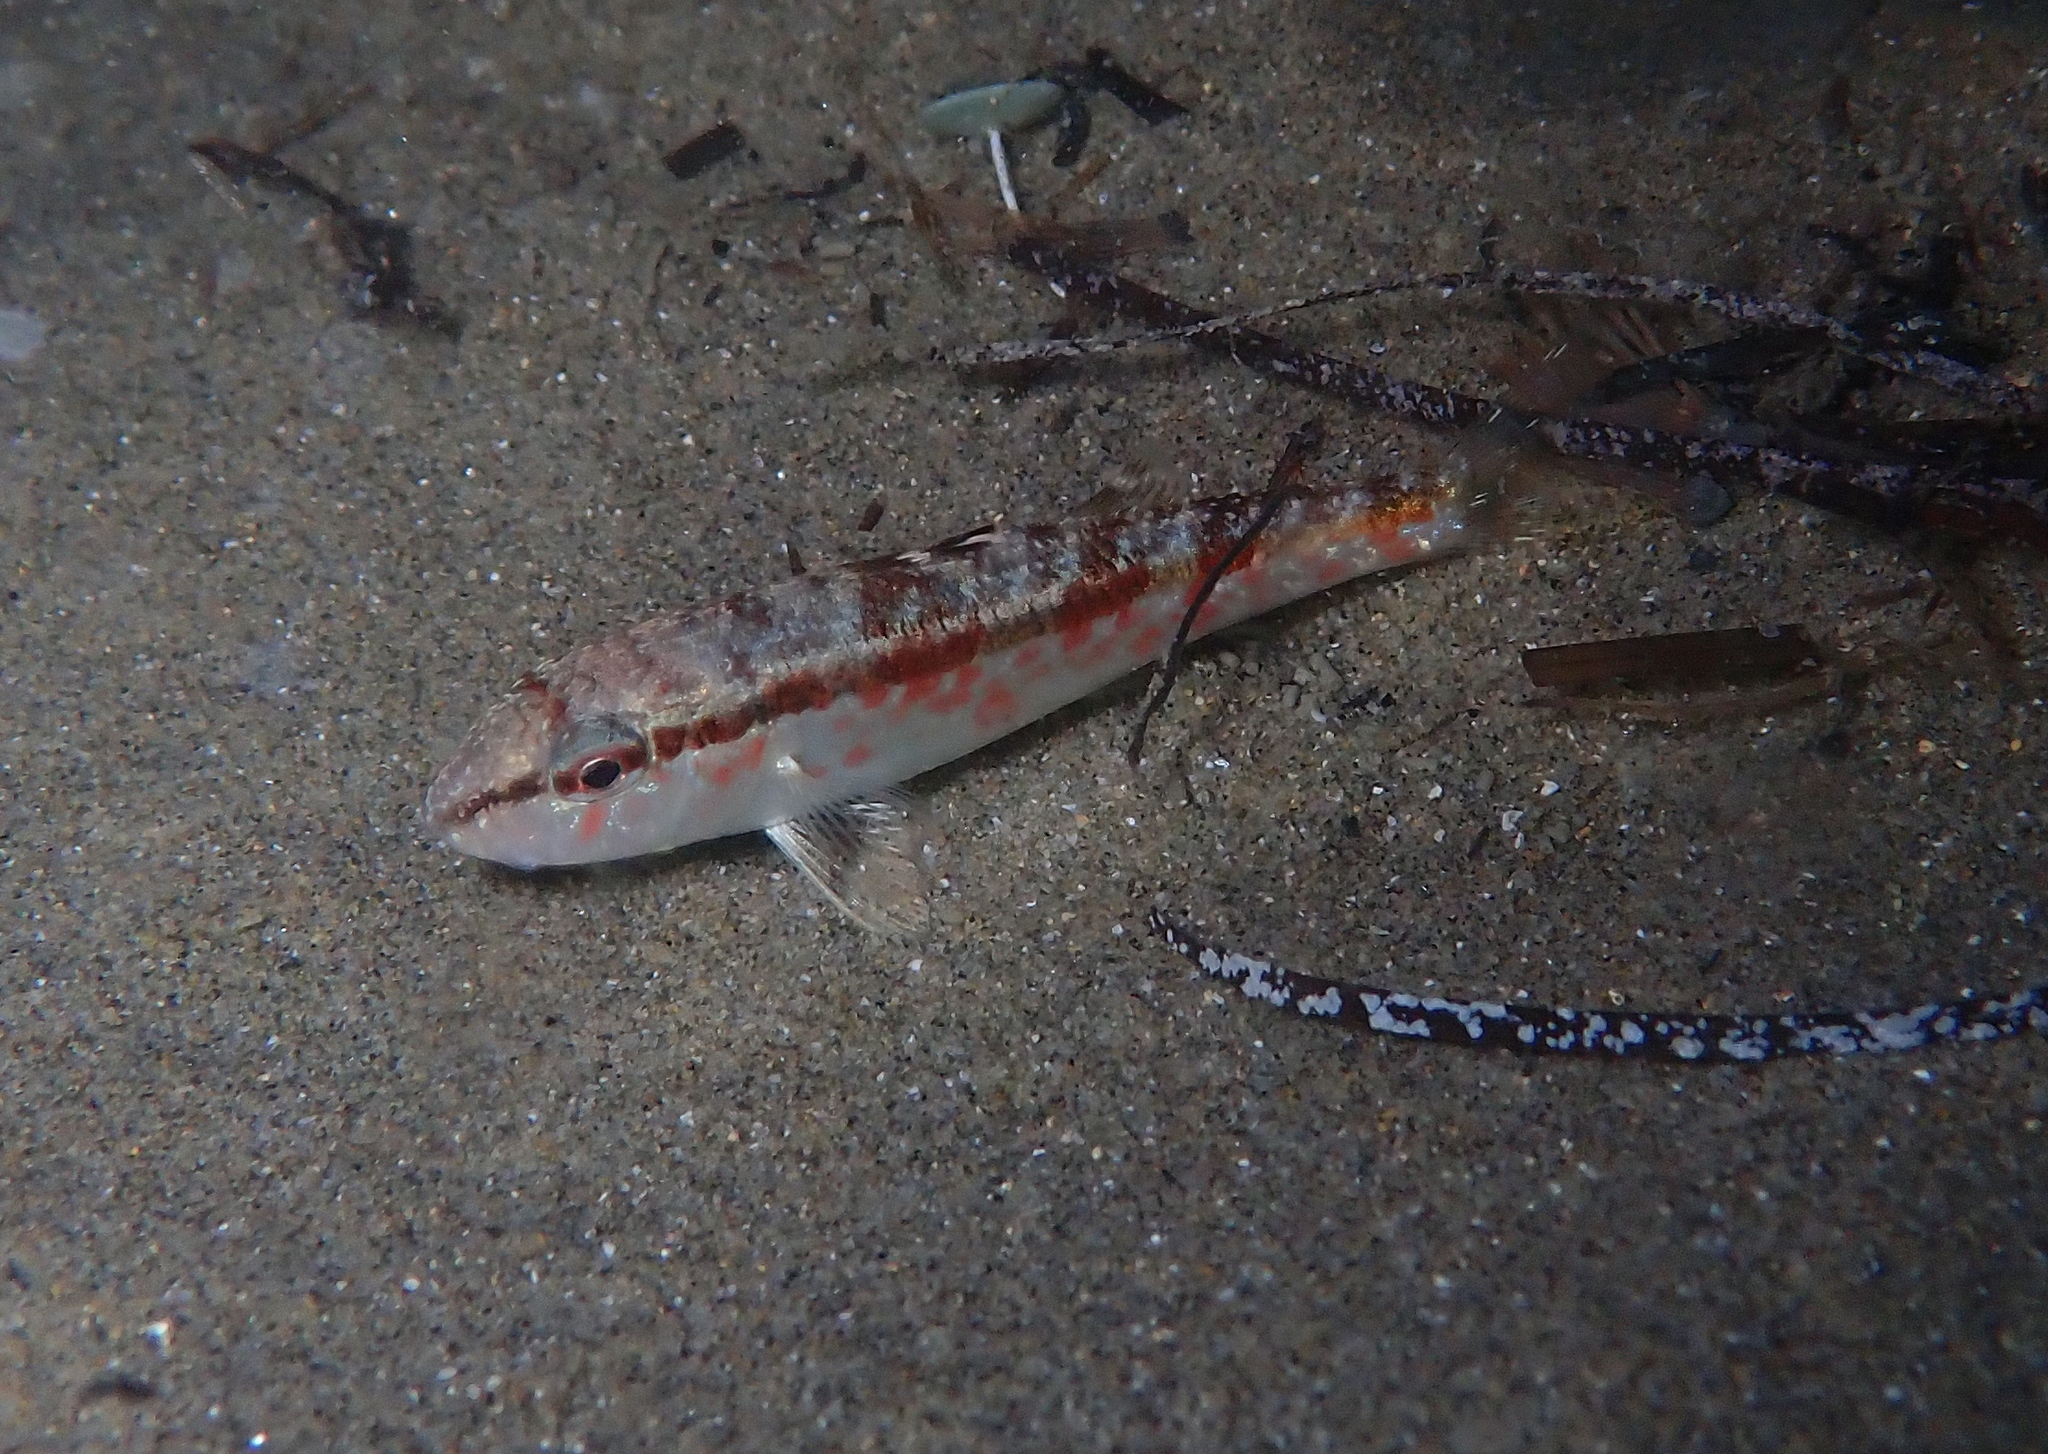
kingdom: Animalia
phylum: Chordata
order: Perciformes
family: Mullidae
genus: Mullus
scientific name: Mullus surmuletus
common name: Red mullet
